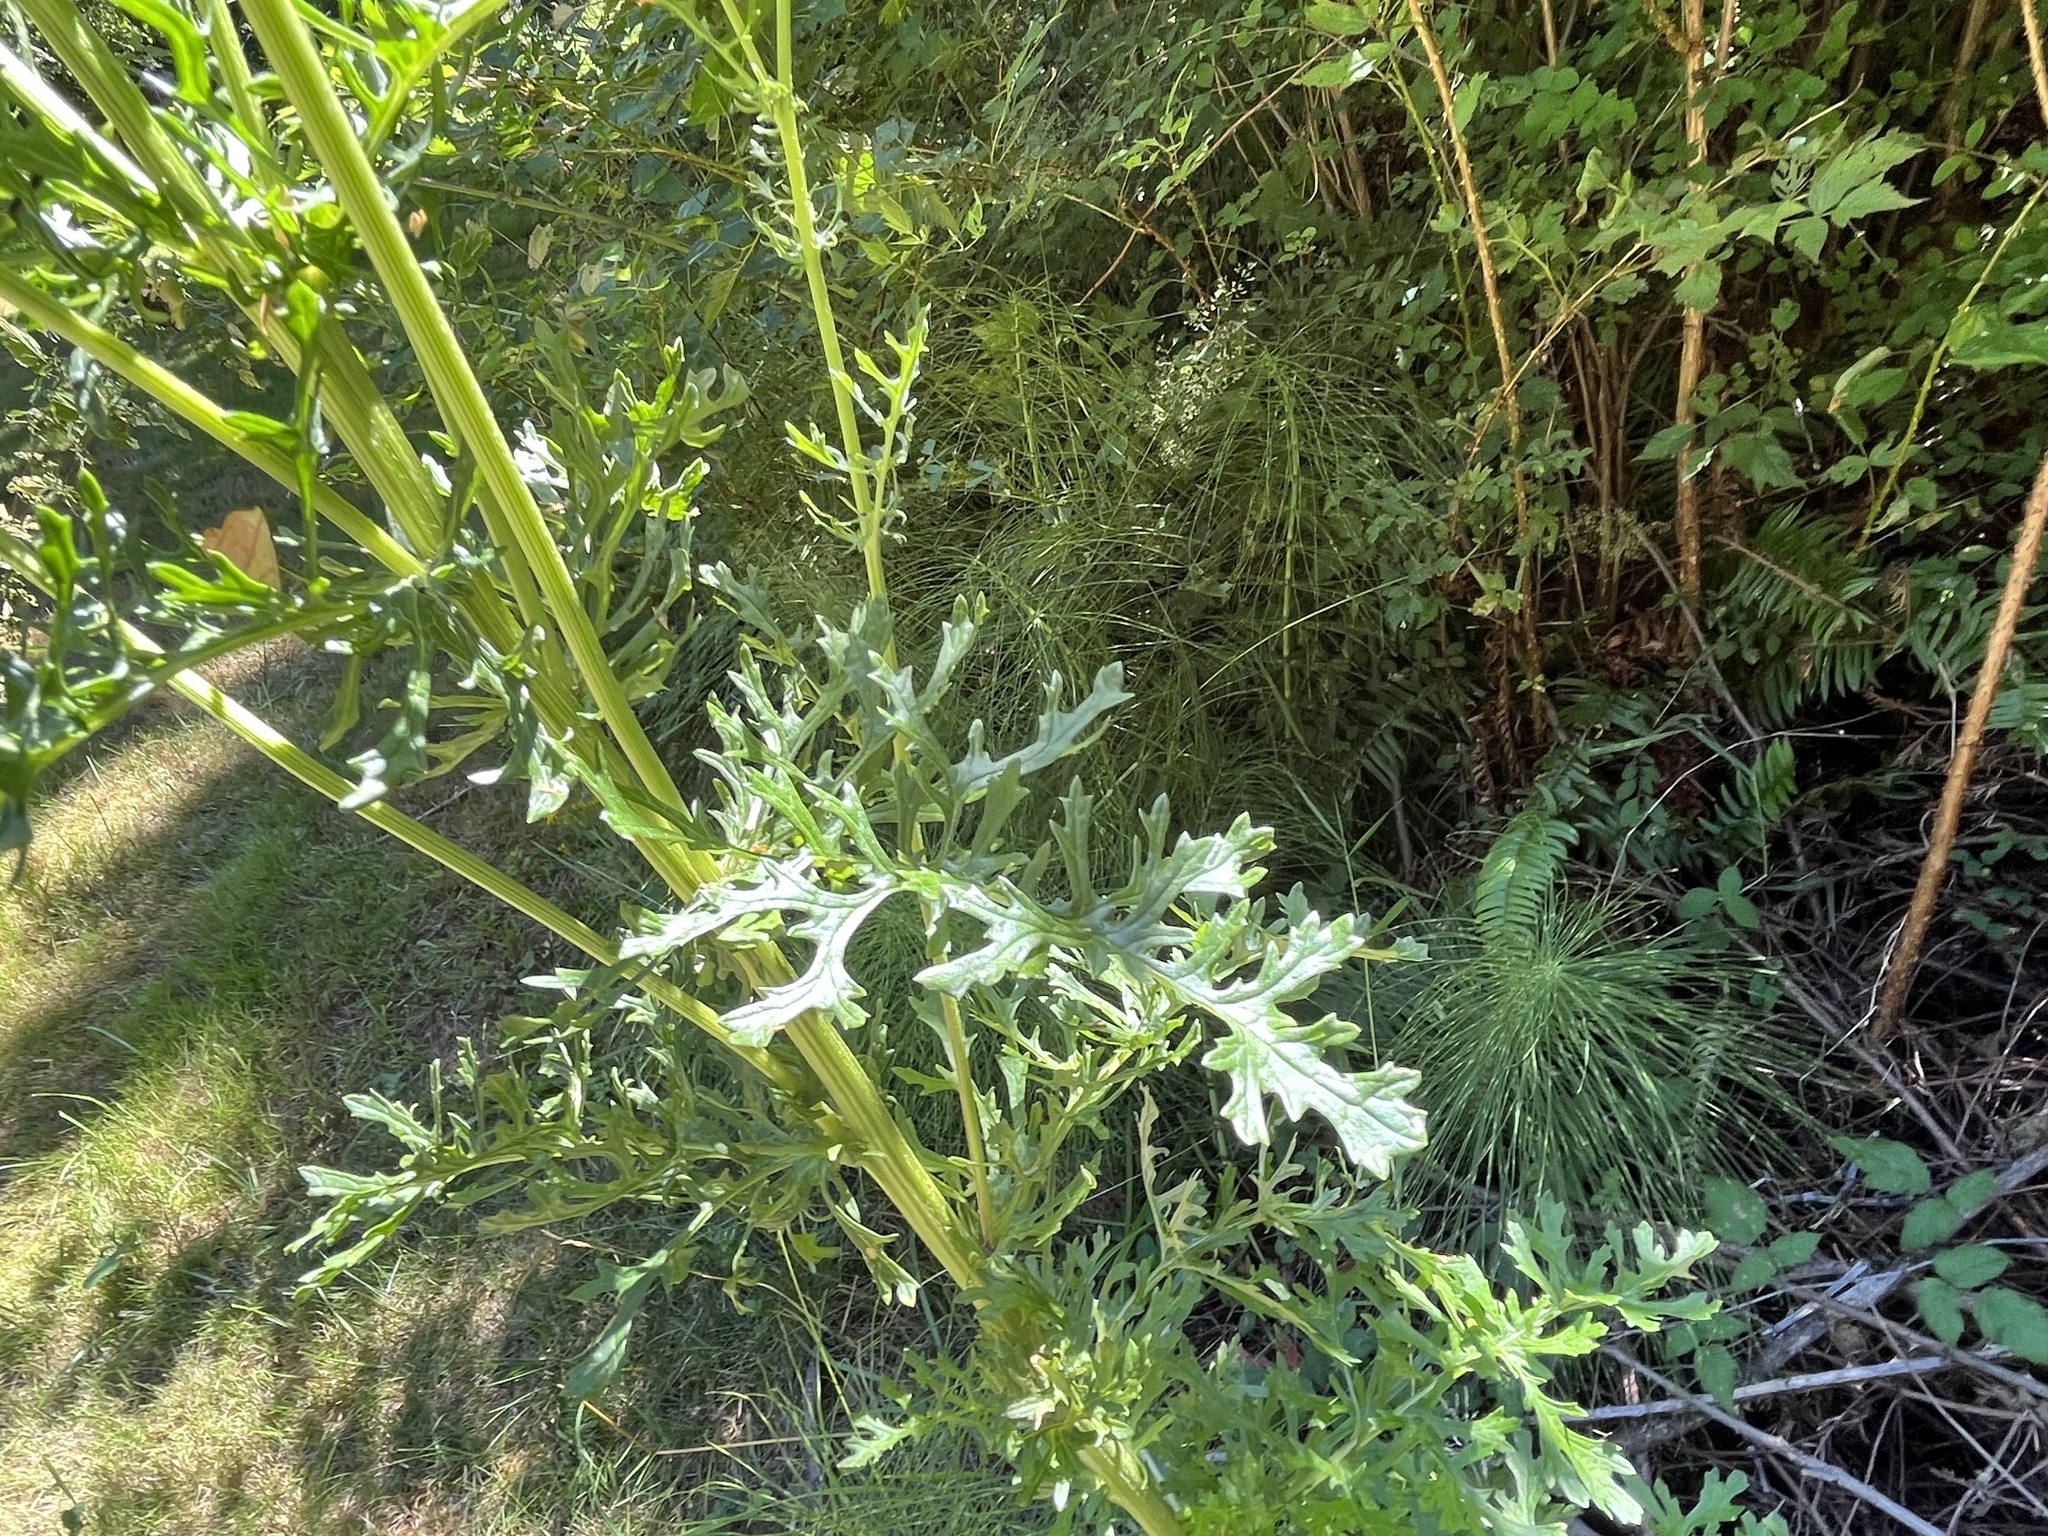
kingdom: Plantae
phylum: Tracheophyta
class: Magnoliopsida
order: Asterales
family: Asteraceae
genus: Jacobaea
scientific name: Jacobaea vulgaris
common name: Stinking willie
